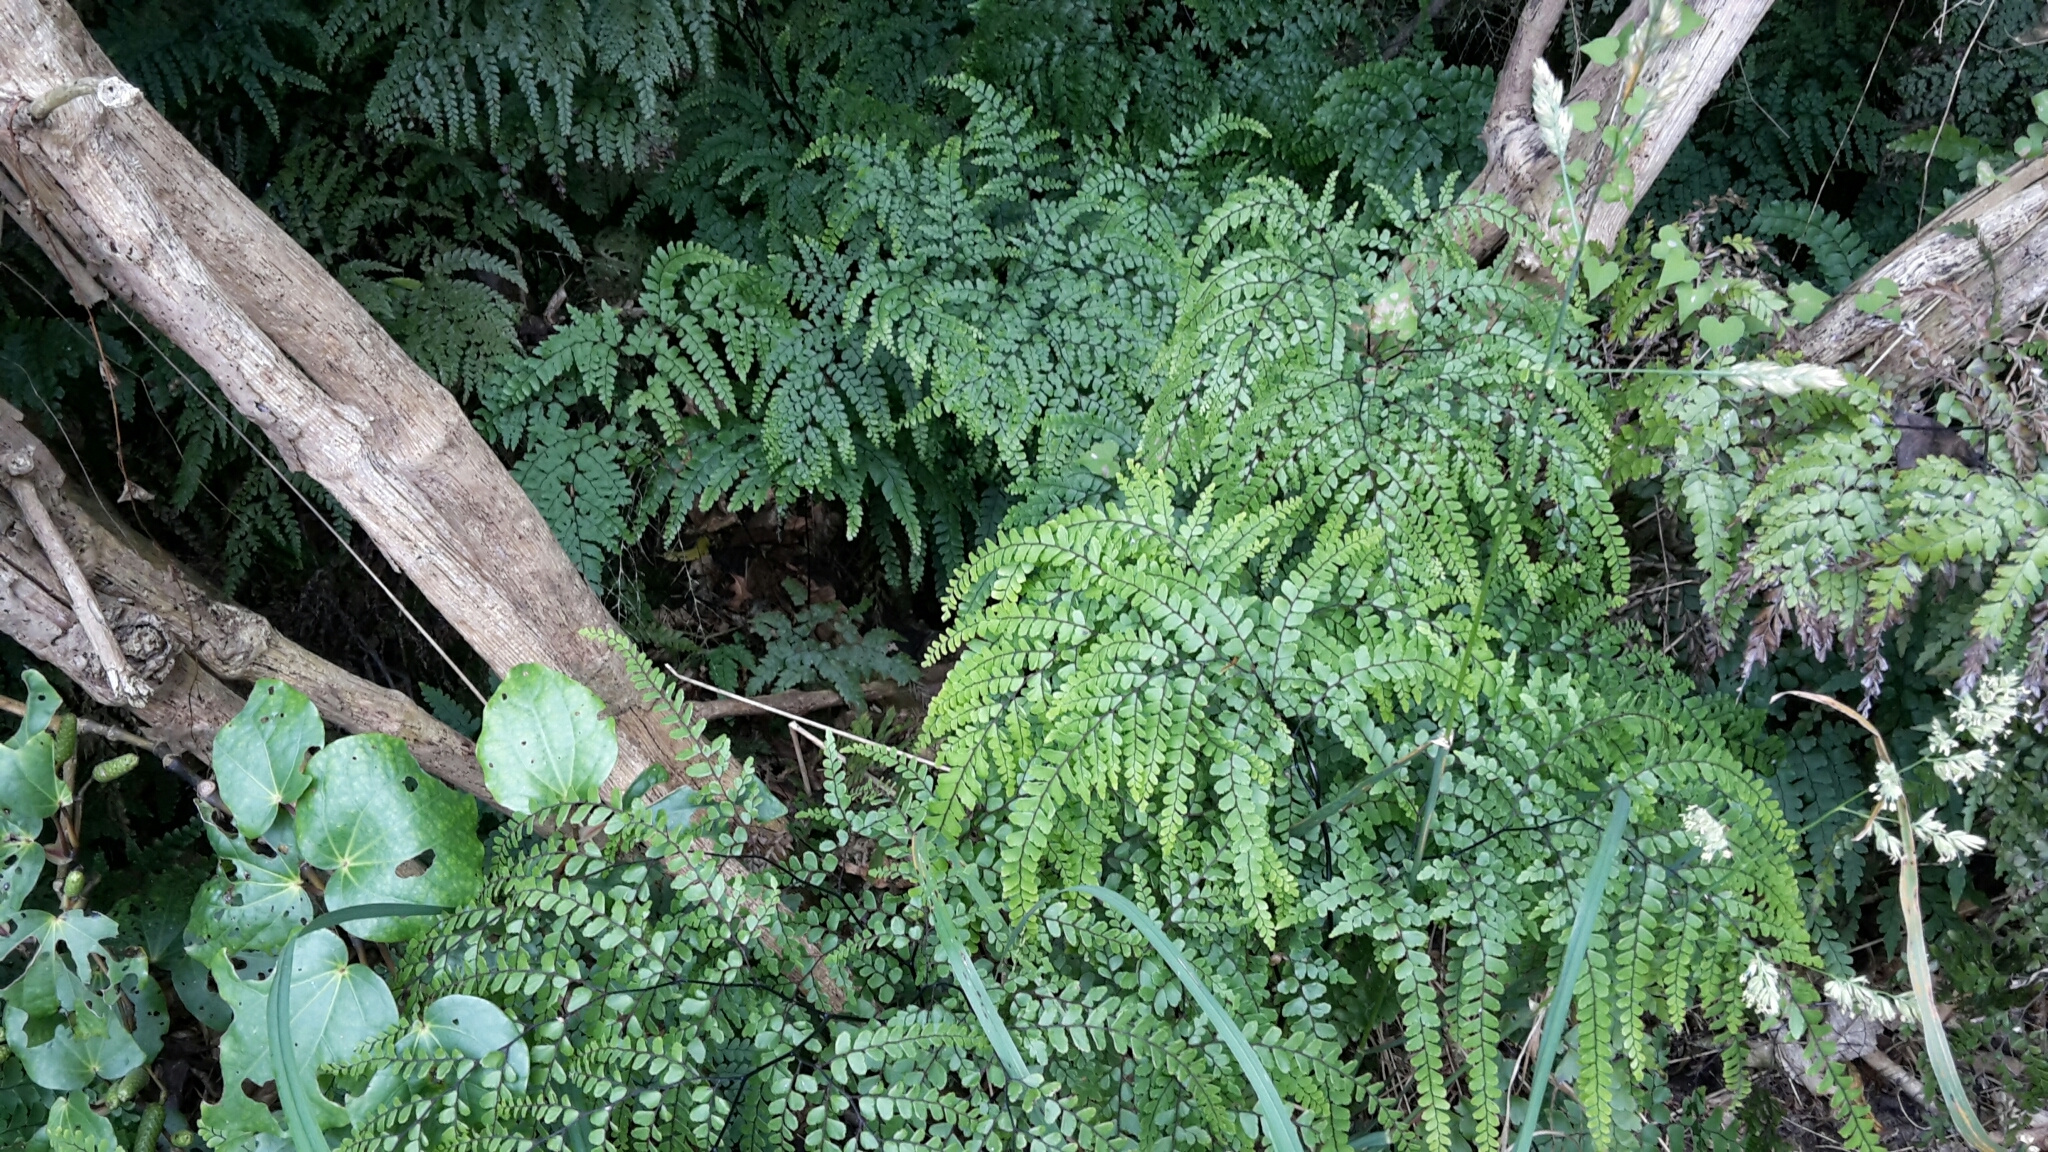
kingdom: Plantae
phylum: Tracheophyta
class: Polypodiopsida
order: Polypodiales
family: Pteridaceae
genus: Adiantum
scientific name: Adiantum formosum
